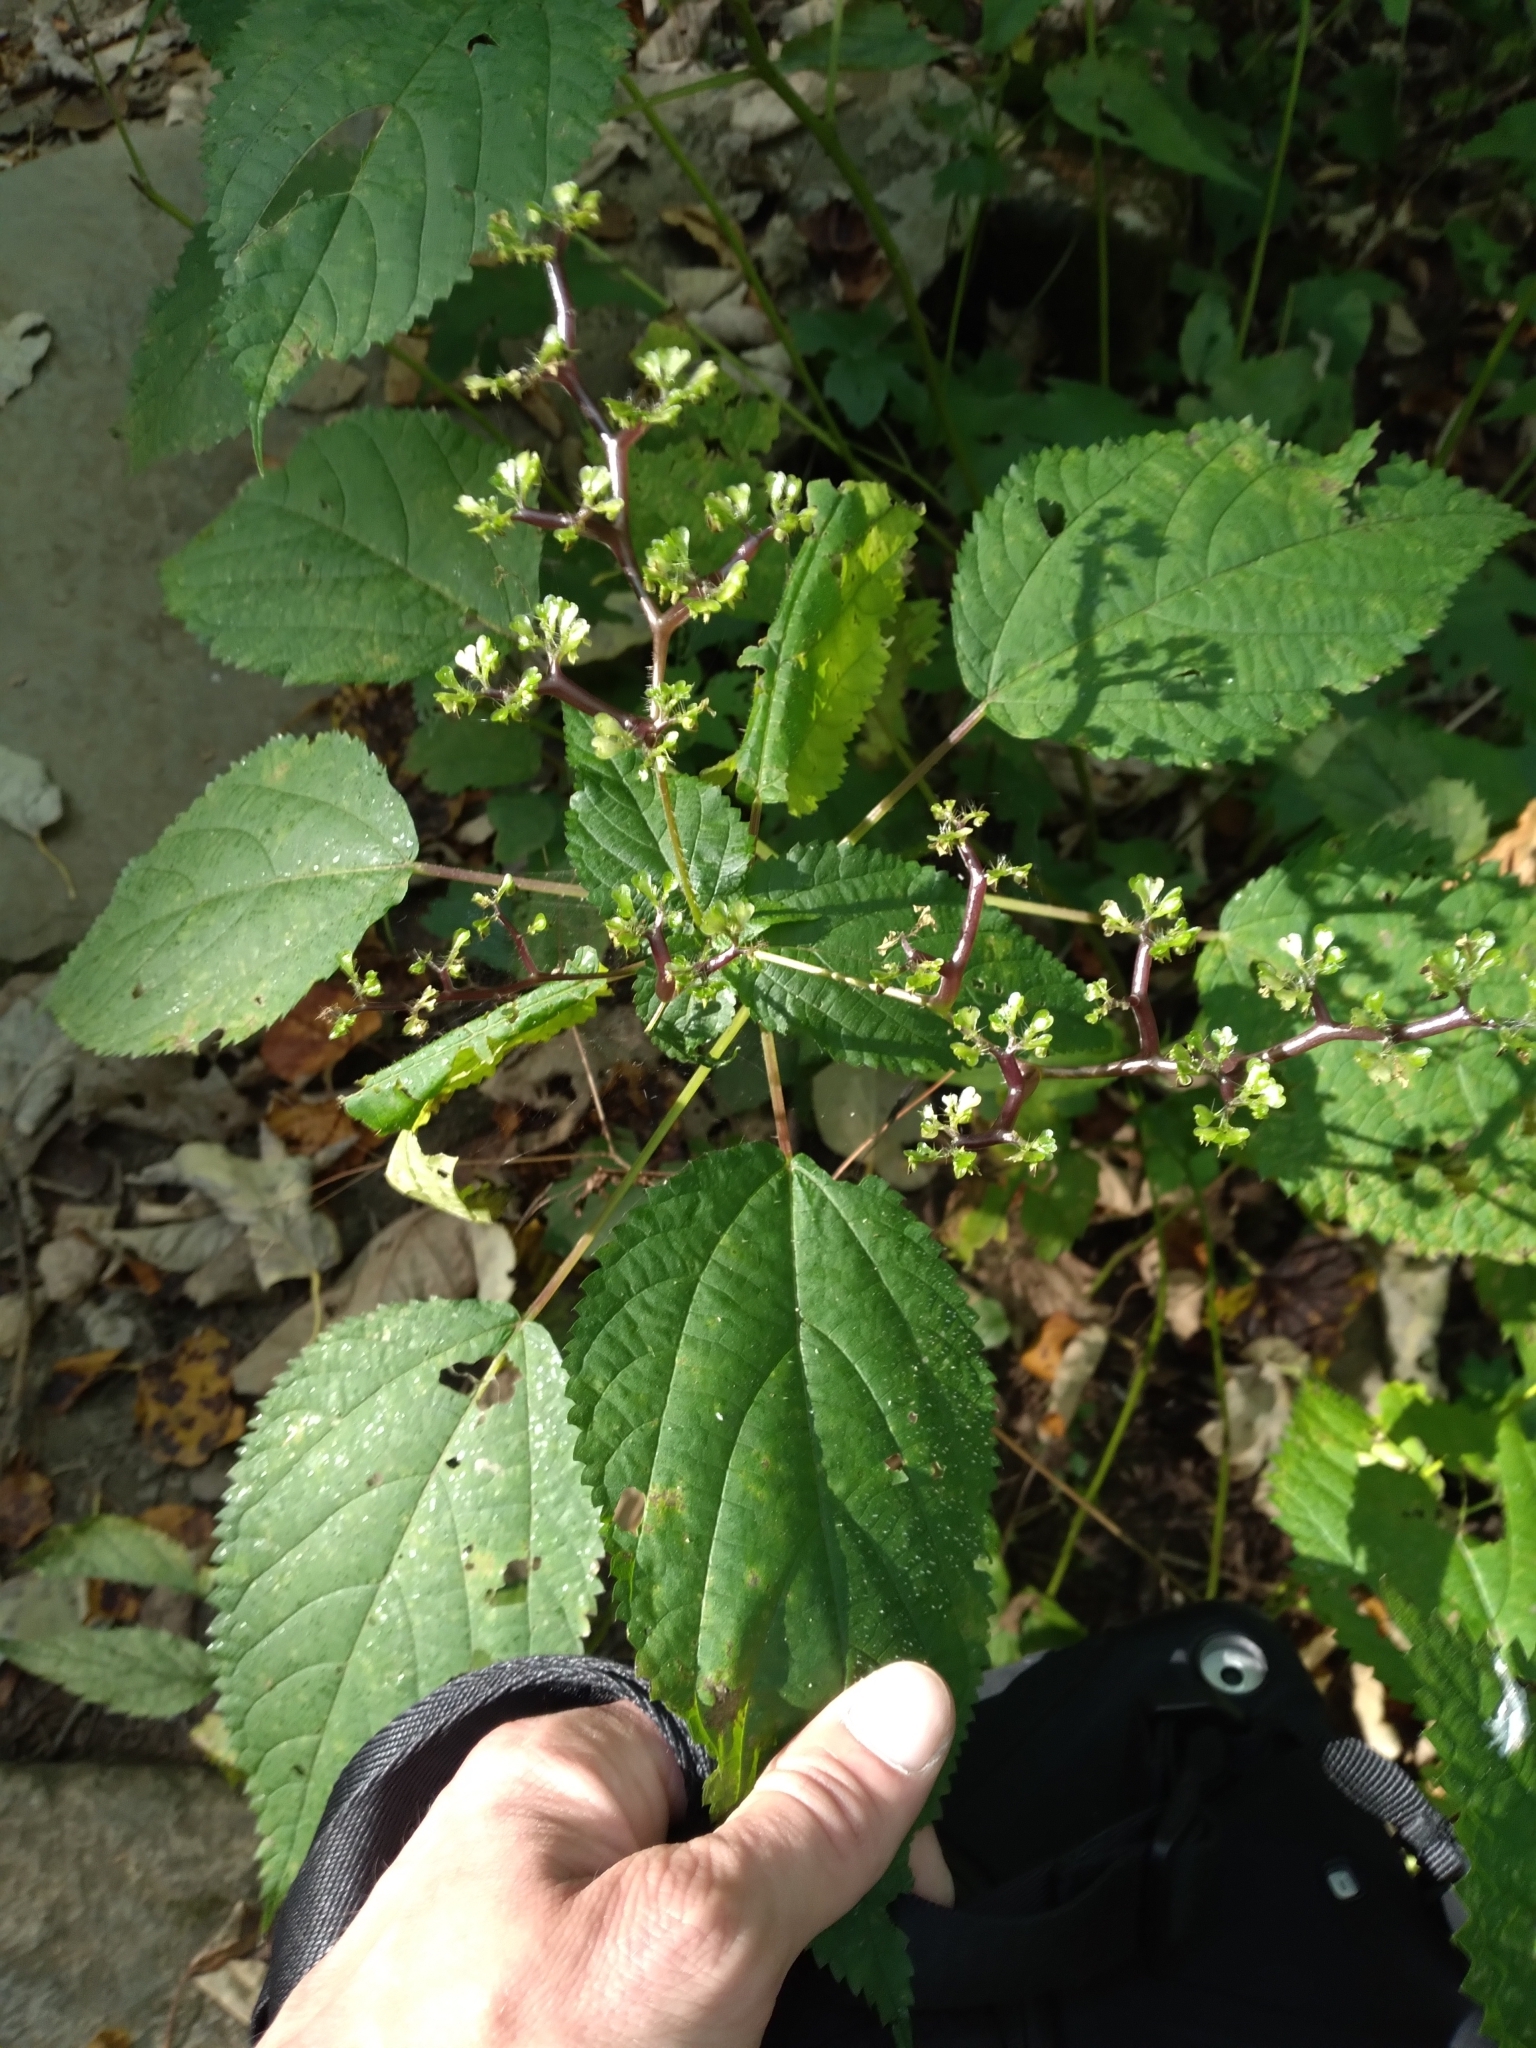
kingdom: Plantae
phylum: Tracheophyta
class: Magnoliopsida
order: Rosales
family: Urticaceae
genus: Laportea
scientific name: Laportea canadensis
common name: Canada nettle
